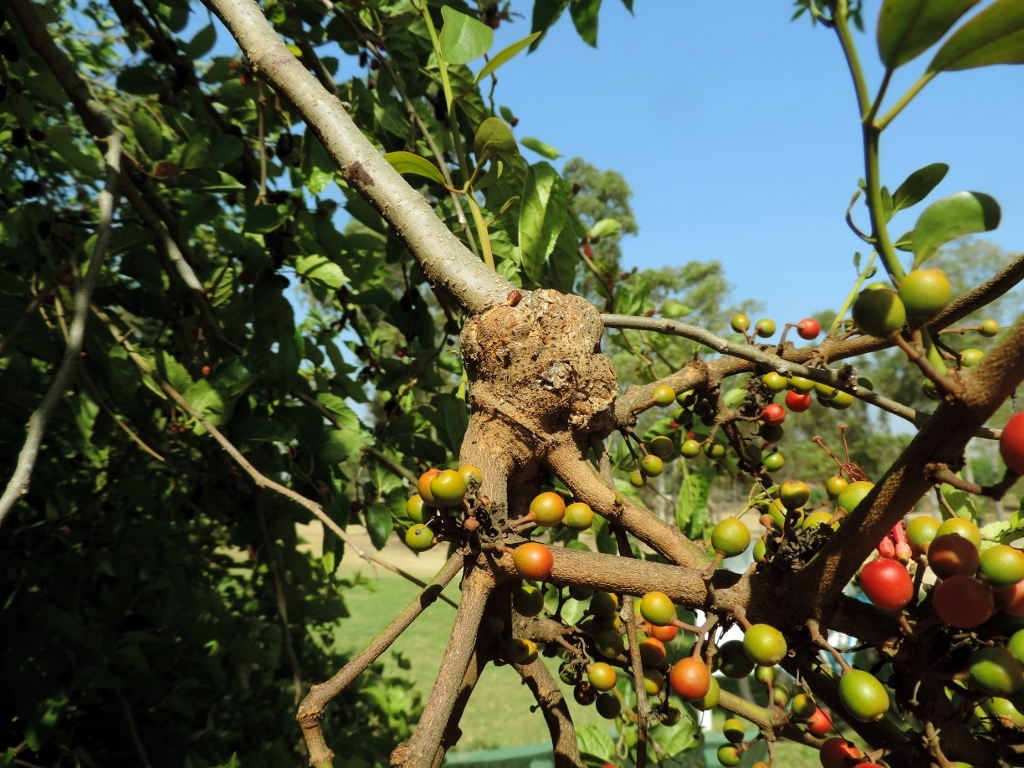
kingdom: Plantae
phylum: Tracheophyta
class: Magnoliopsida
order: Santalales
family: Loranthaceae
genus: Globimetula
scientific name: Globimetula mweroensis
